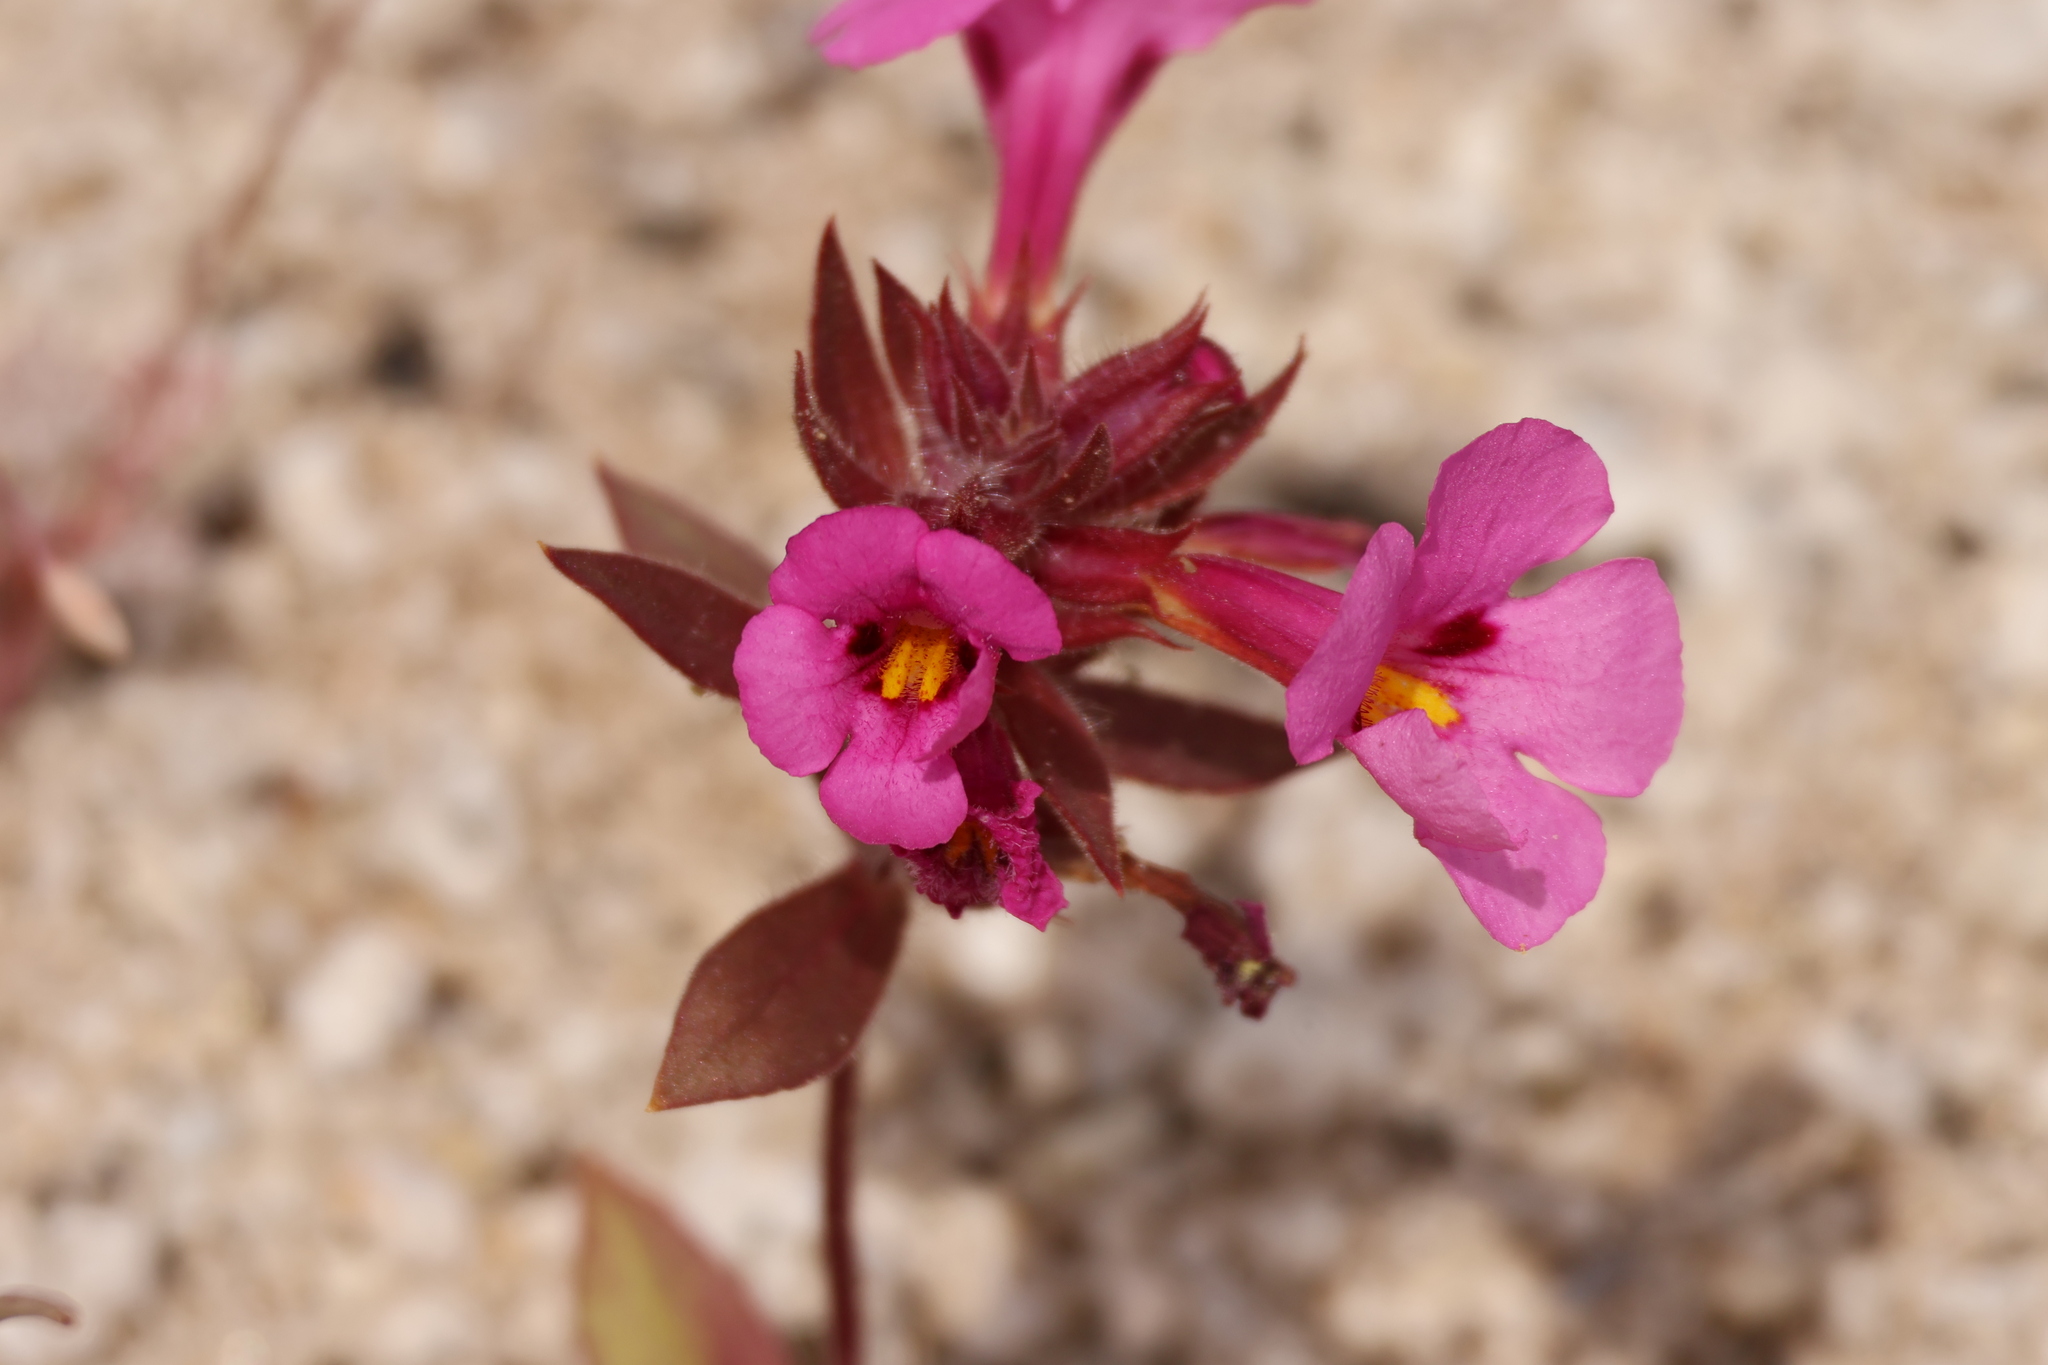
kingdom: Plantae
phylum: Tracheophyta
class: Magnoliopsida
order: Lamiales
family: Phrymaceae
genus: Diplacus
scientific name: Diplacus bigelovii
